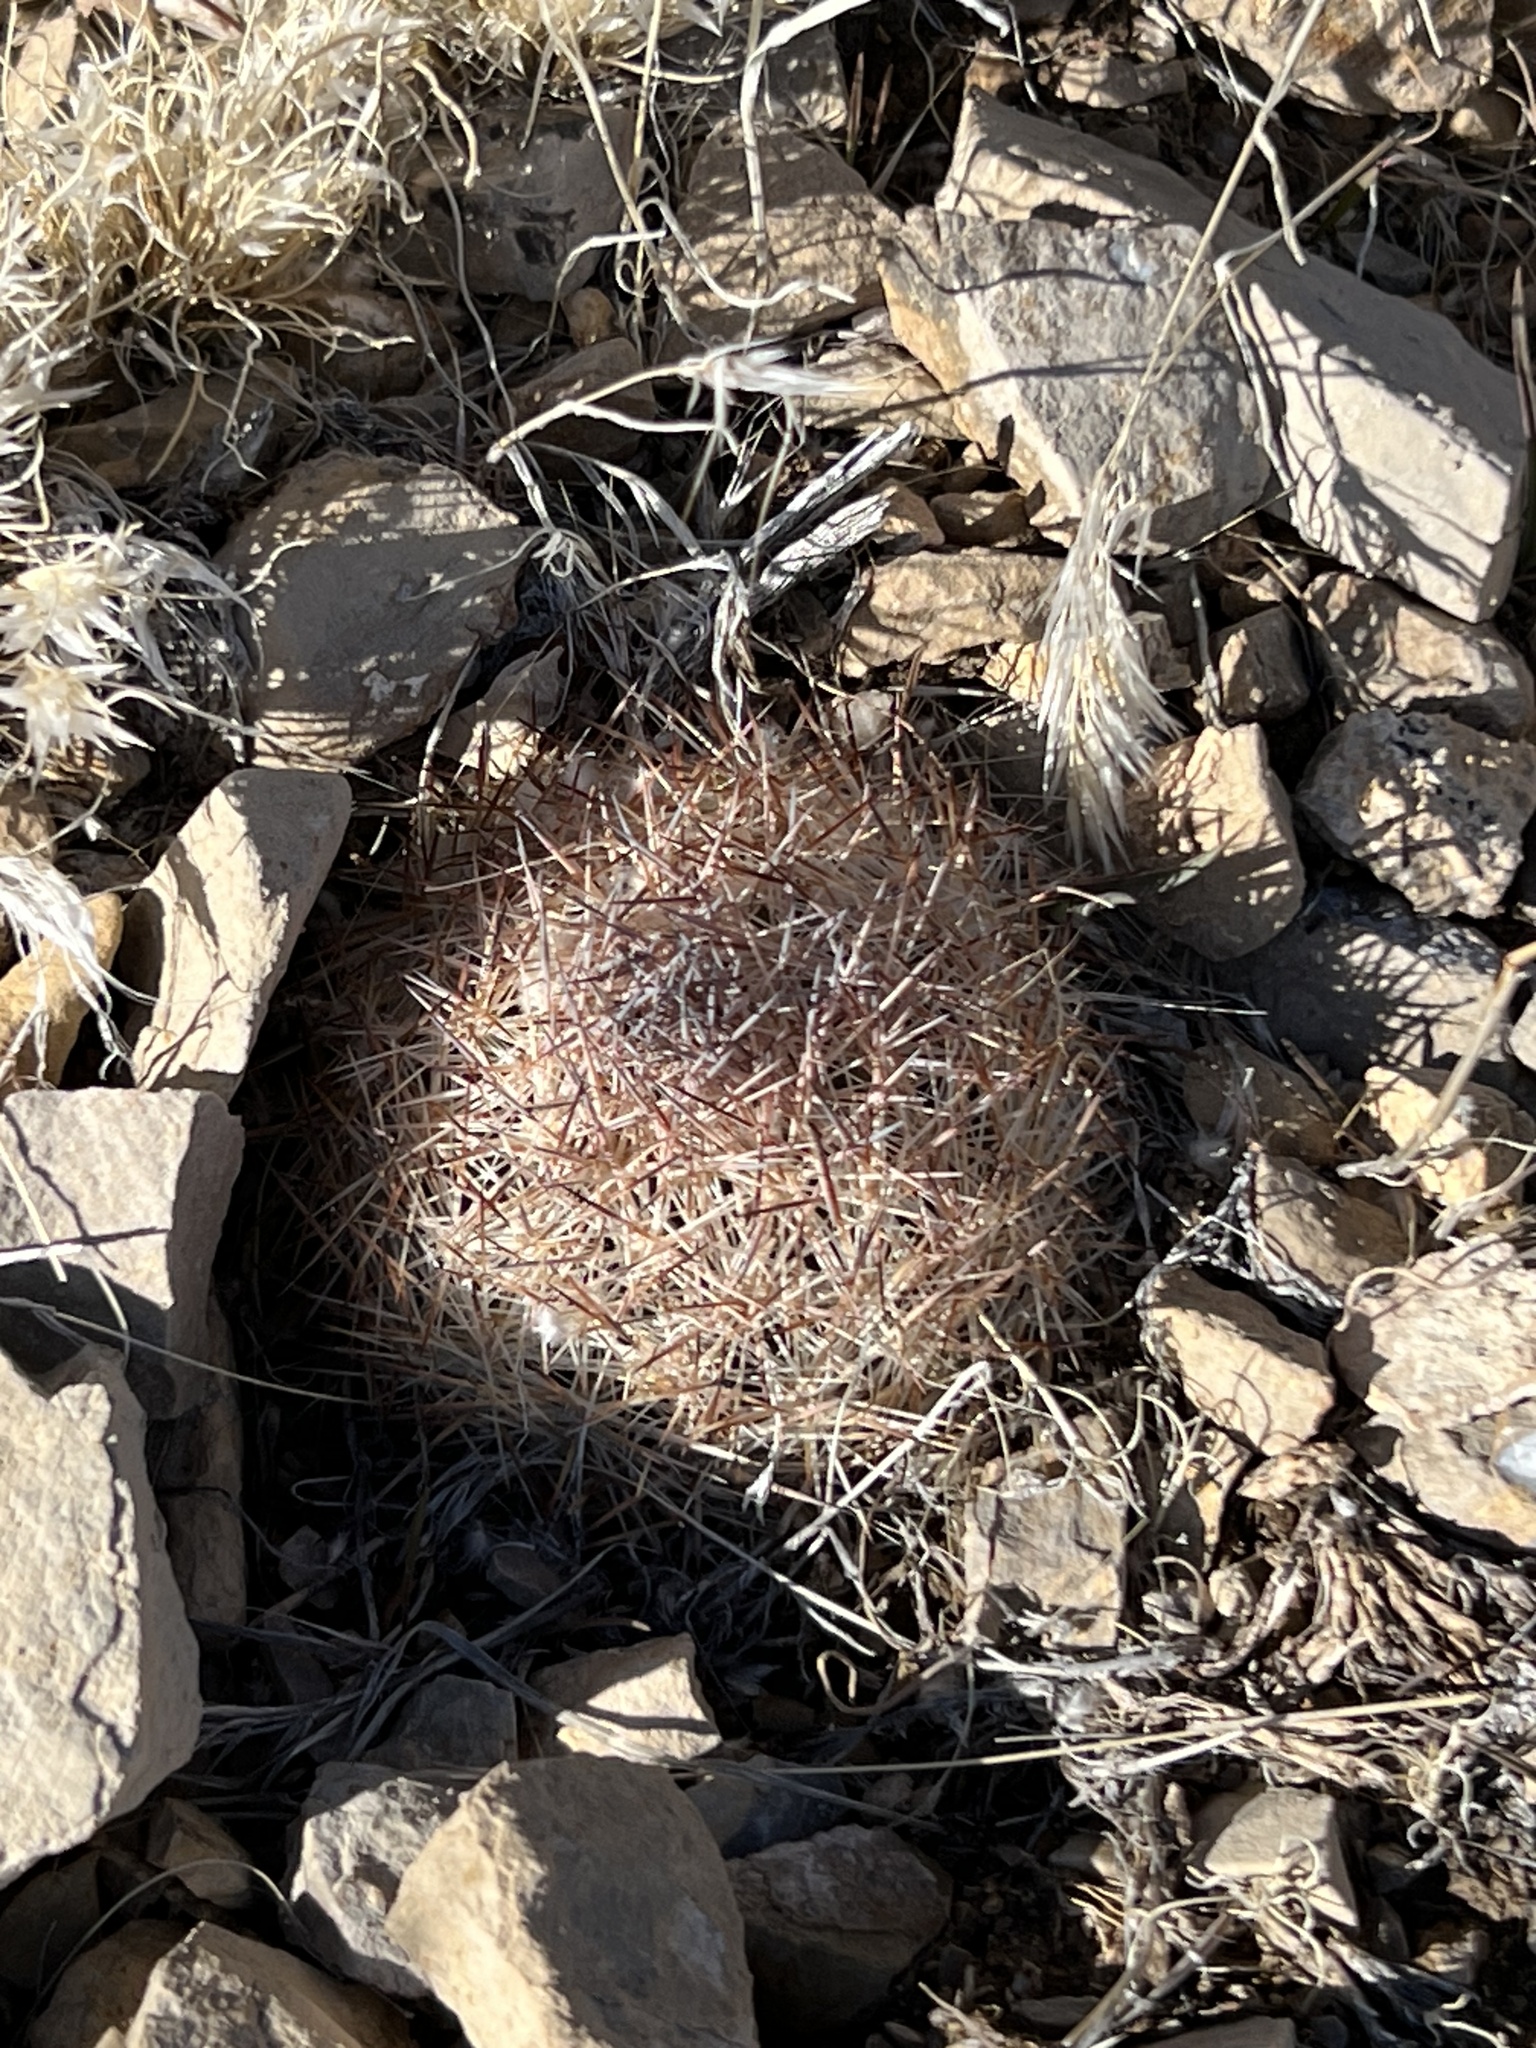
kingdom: Plantae
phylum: Tracheophyta
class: Magnoliopsida
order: Caryophyllales
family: Cactaceae
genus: Pelecyphora
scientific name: Pelecyphora dasyacantha
